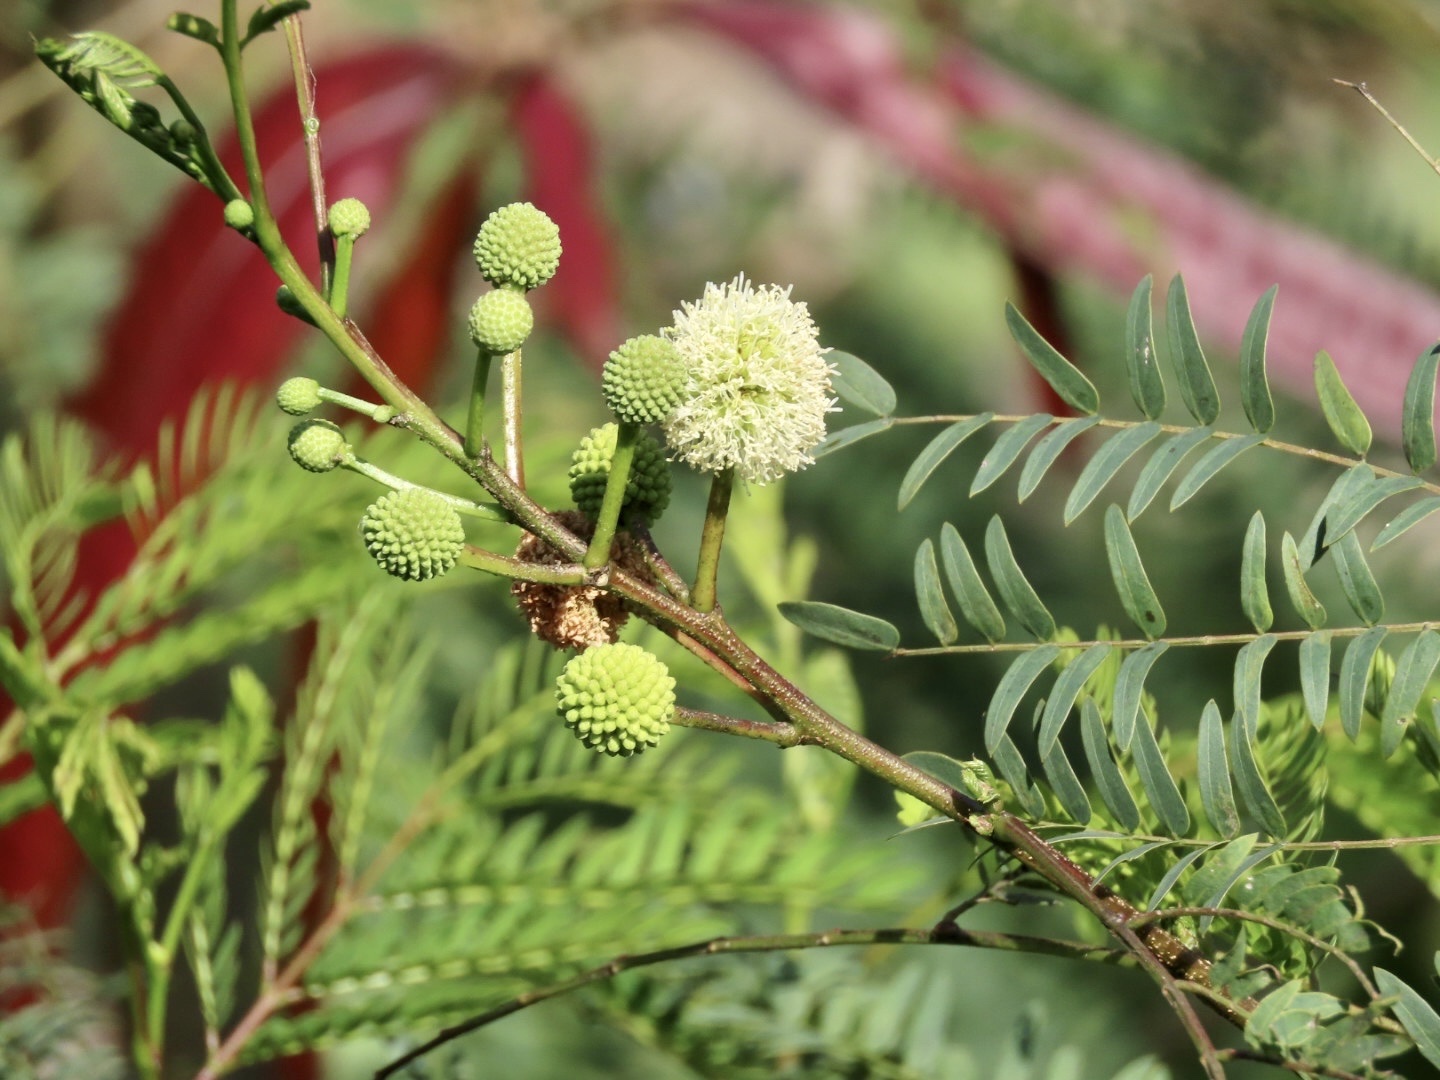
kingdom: Plantae
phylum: Tracheophyta
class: Magnoliopsida
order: Fabales
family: Fabaceae
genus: Leucaena
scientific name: Leucaena leucocephala
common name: White leadtree
